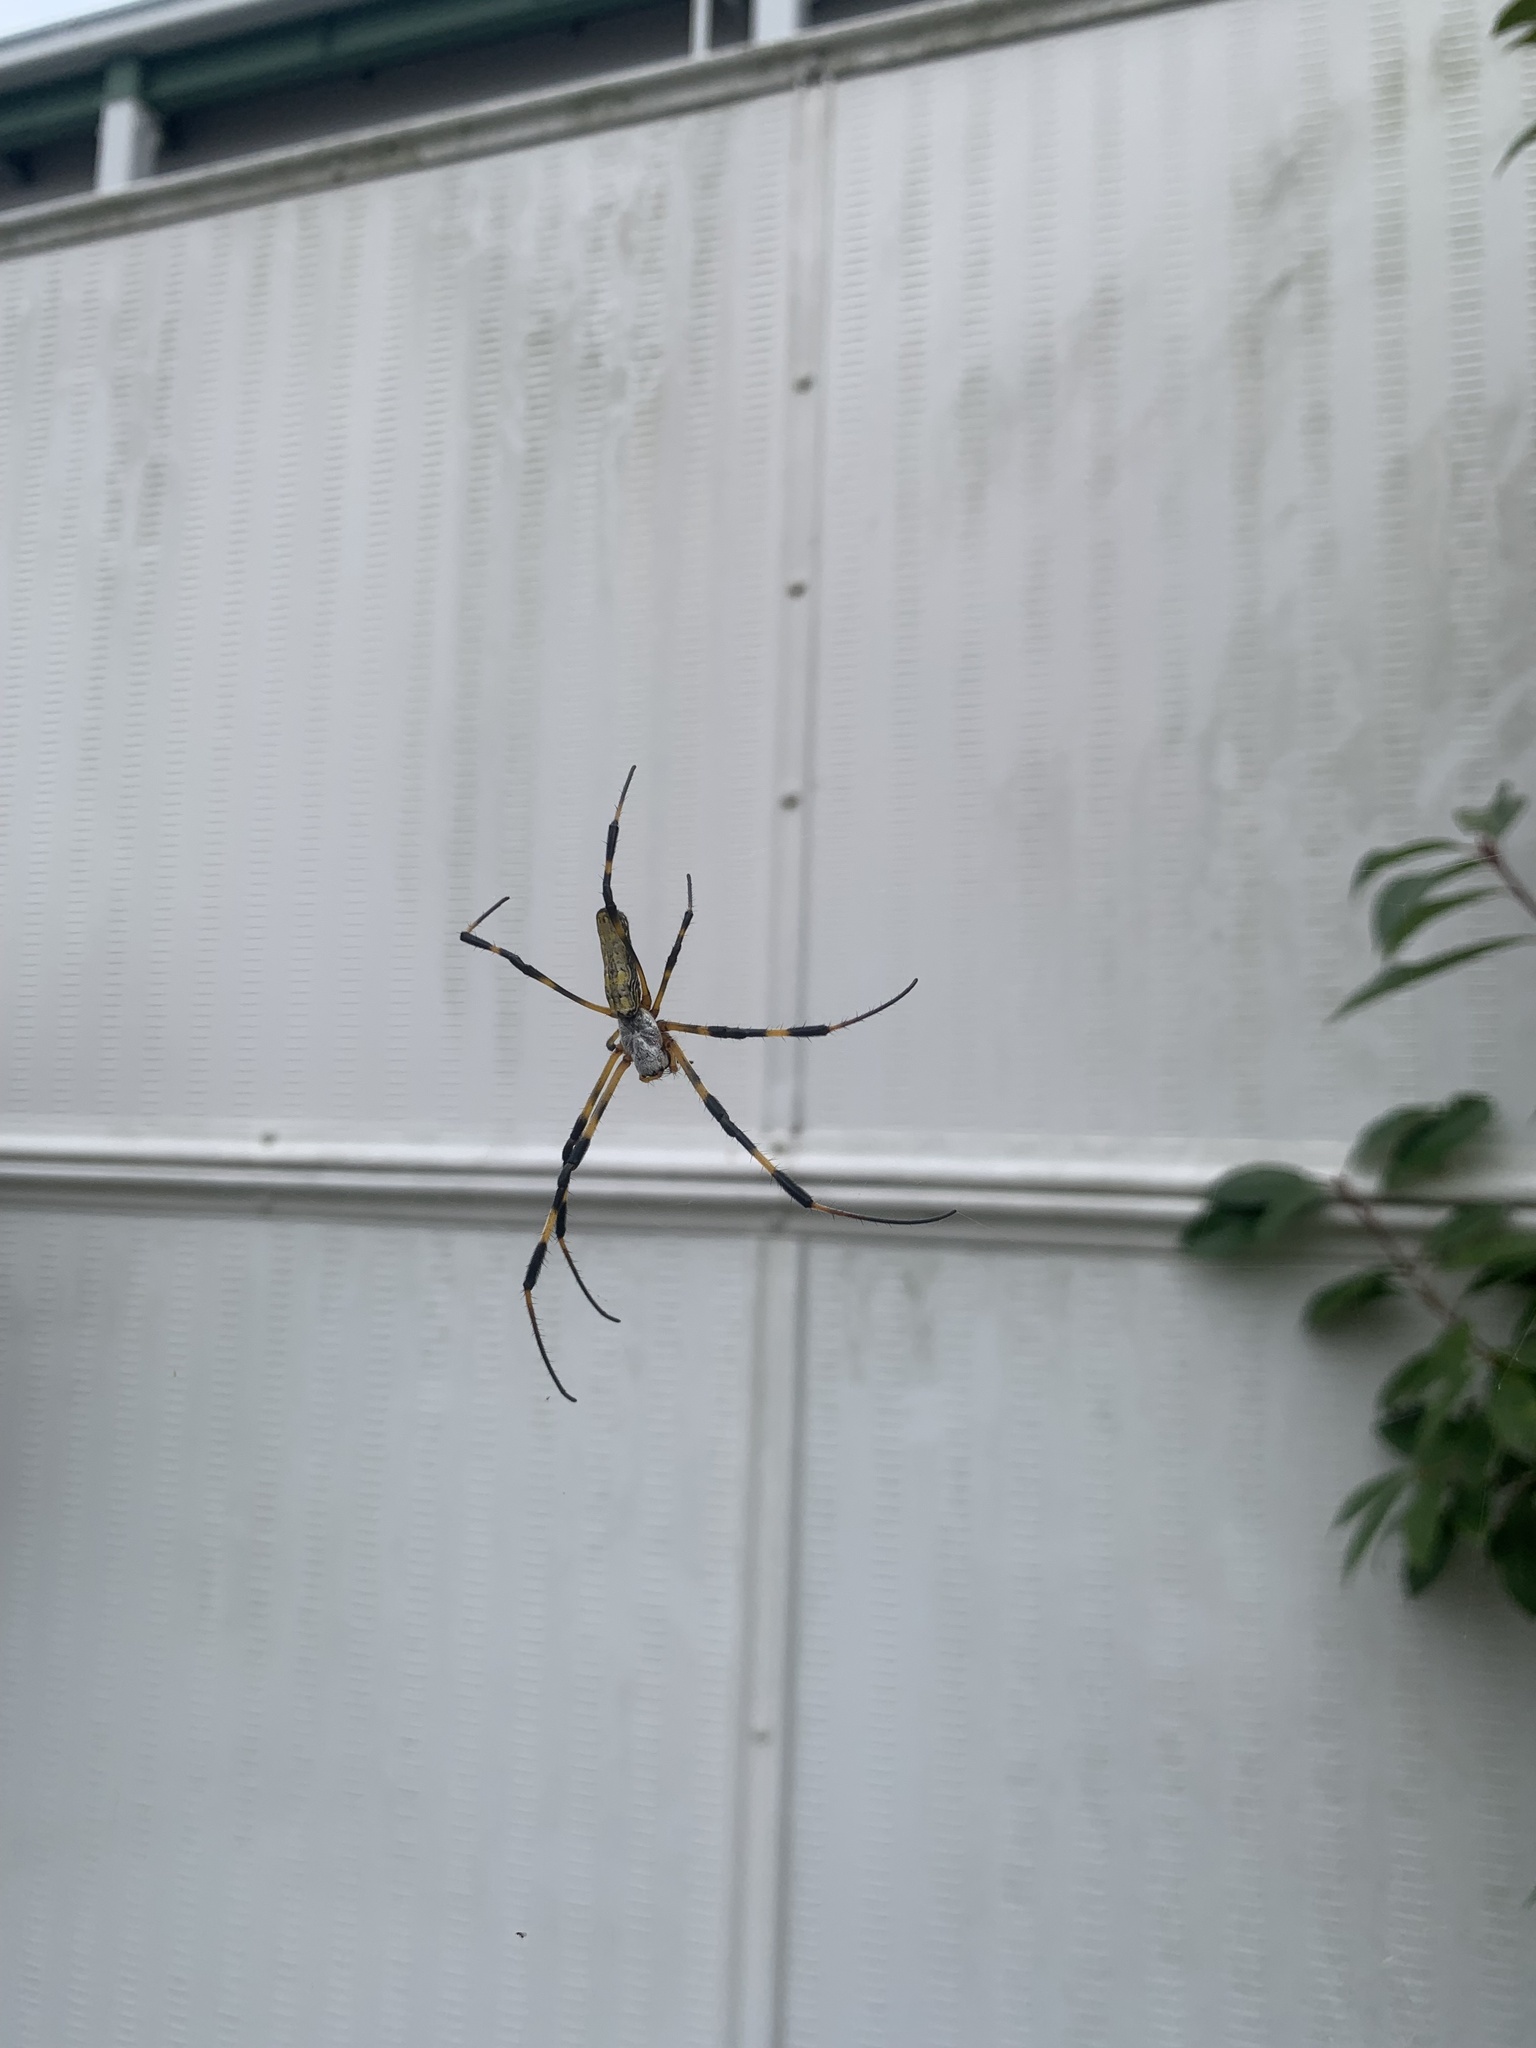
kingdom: Animalia
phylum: Arthropoda
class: Arachnida
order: Araneae
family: Araneidae
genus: Trichonephila
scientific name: Trichonephila clavata
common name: Jorō spider
